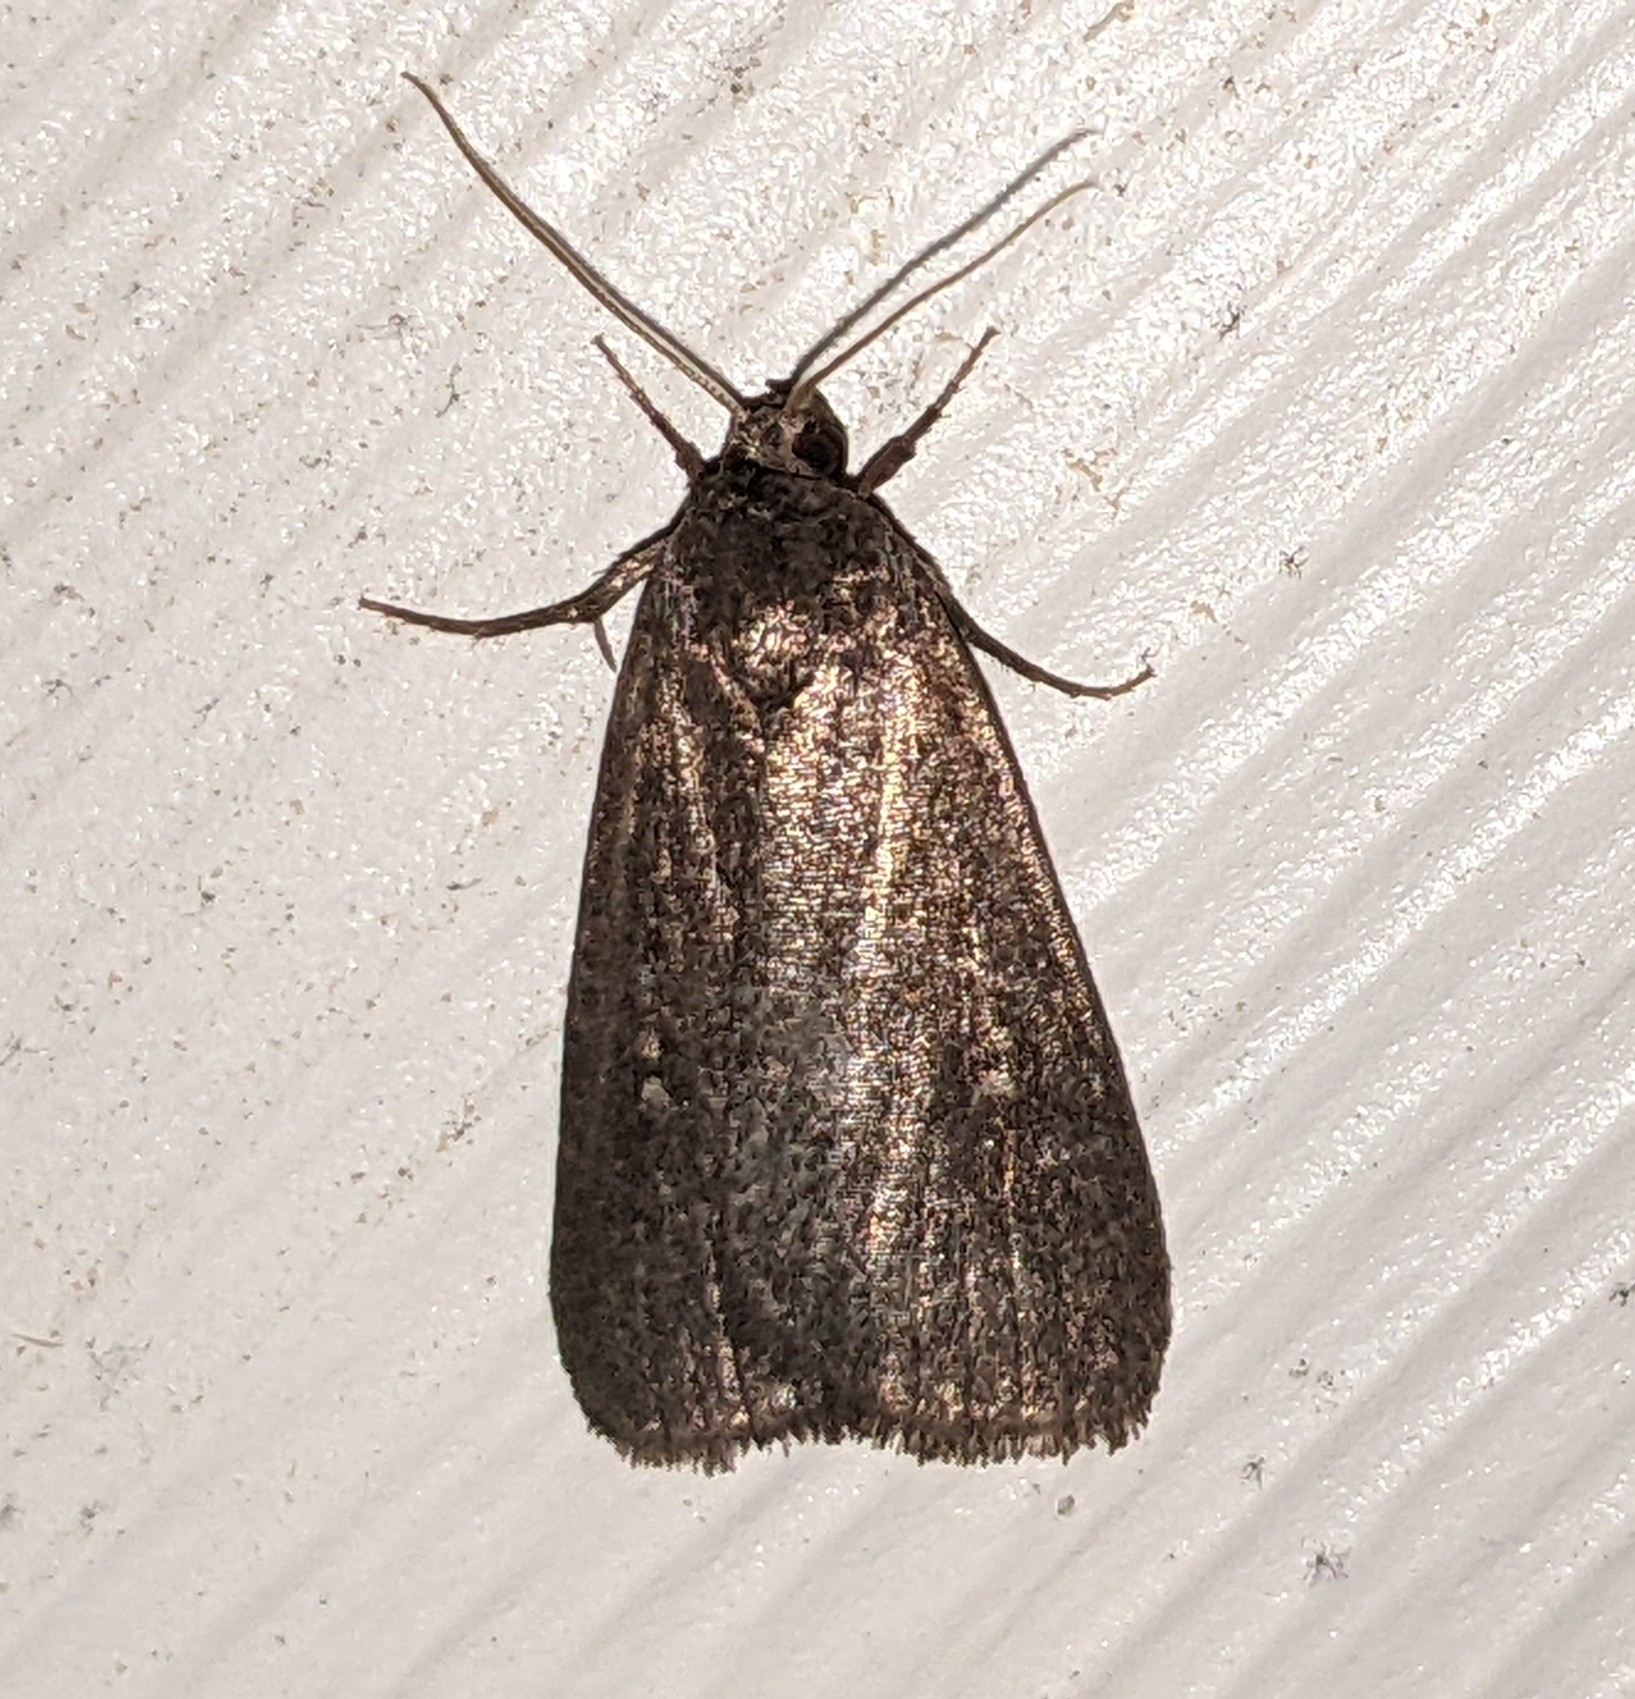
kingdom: Animalia
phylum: Arthropoda
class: Insecta
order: Lepidoptera
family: Noctuidae
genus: Proxenus
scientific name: Proxenus miranda
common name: Miranda moth
